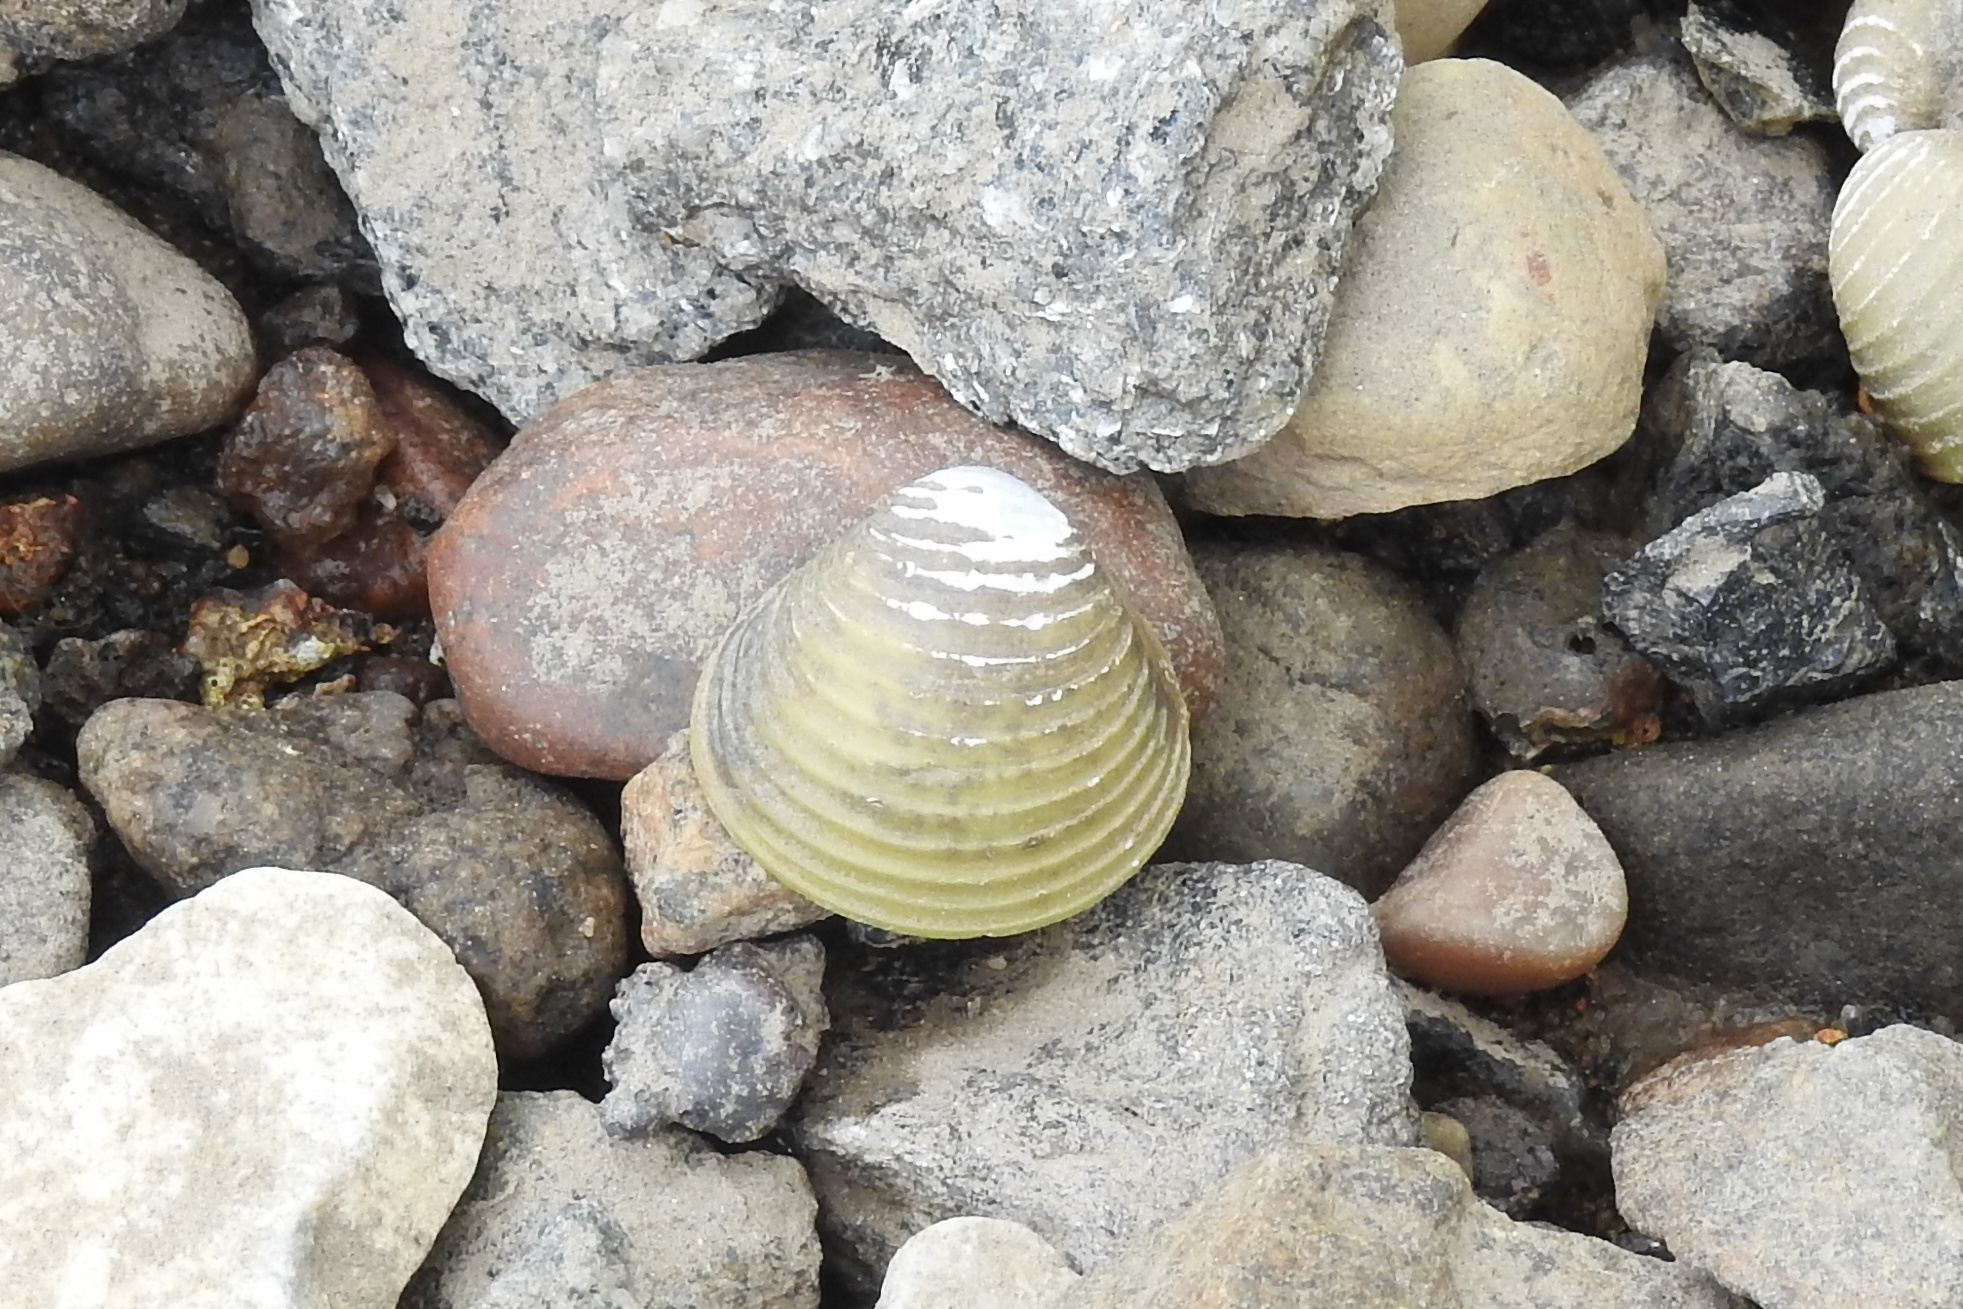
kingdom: Animalia
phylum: Mollusca
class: Bivalvia
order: Venerida
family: Cyrenidae
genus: Corbicula
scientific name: Corbicula fluminea
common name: Asian clam
